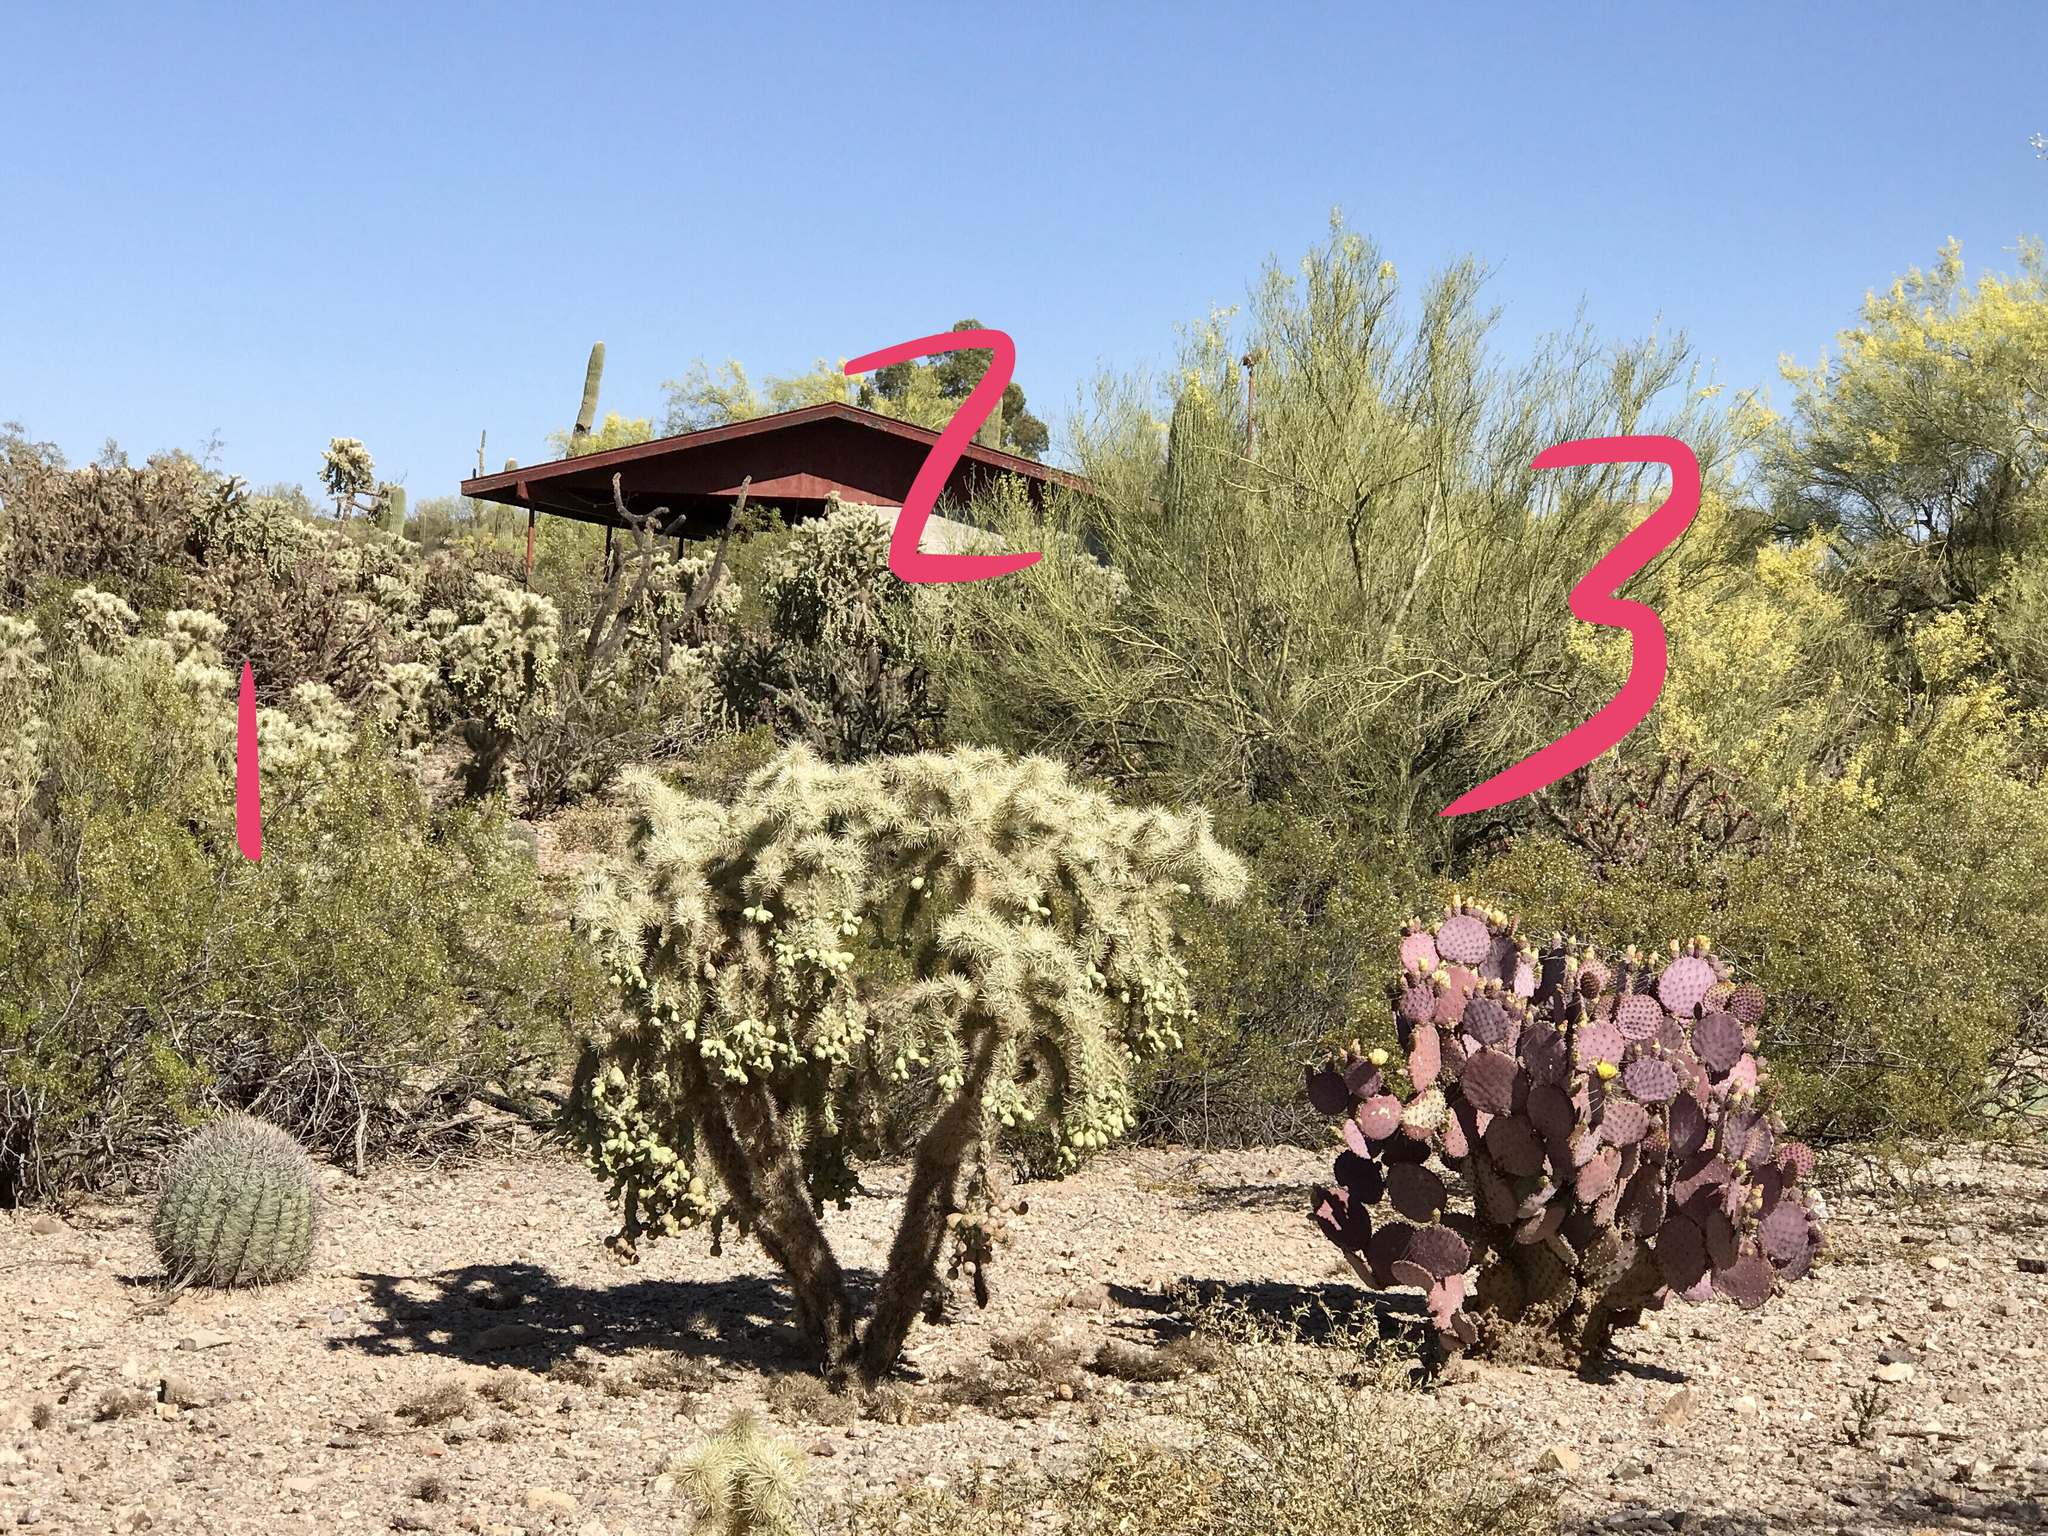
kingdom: Plantae
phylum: Tracheophyta
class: Magnoliopsida
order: Caryophyllales
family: Cactaceae
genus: Opuntia
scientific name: Opuntia gosseliniana
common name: Violet prickly-pear
